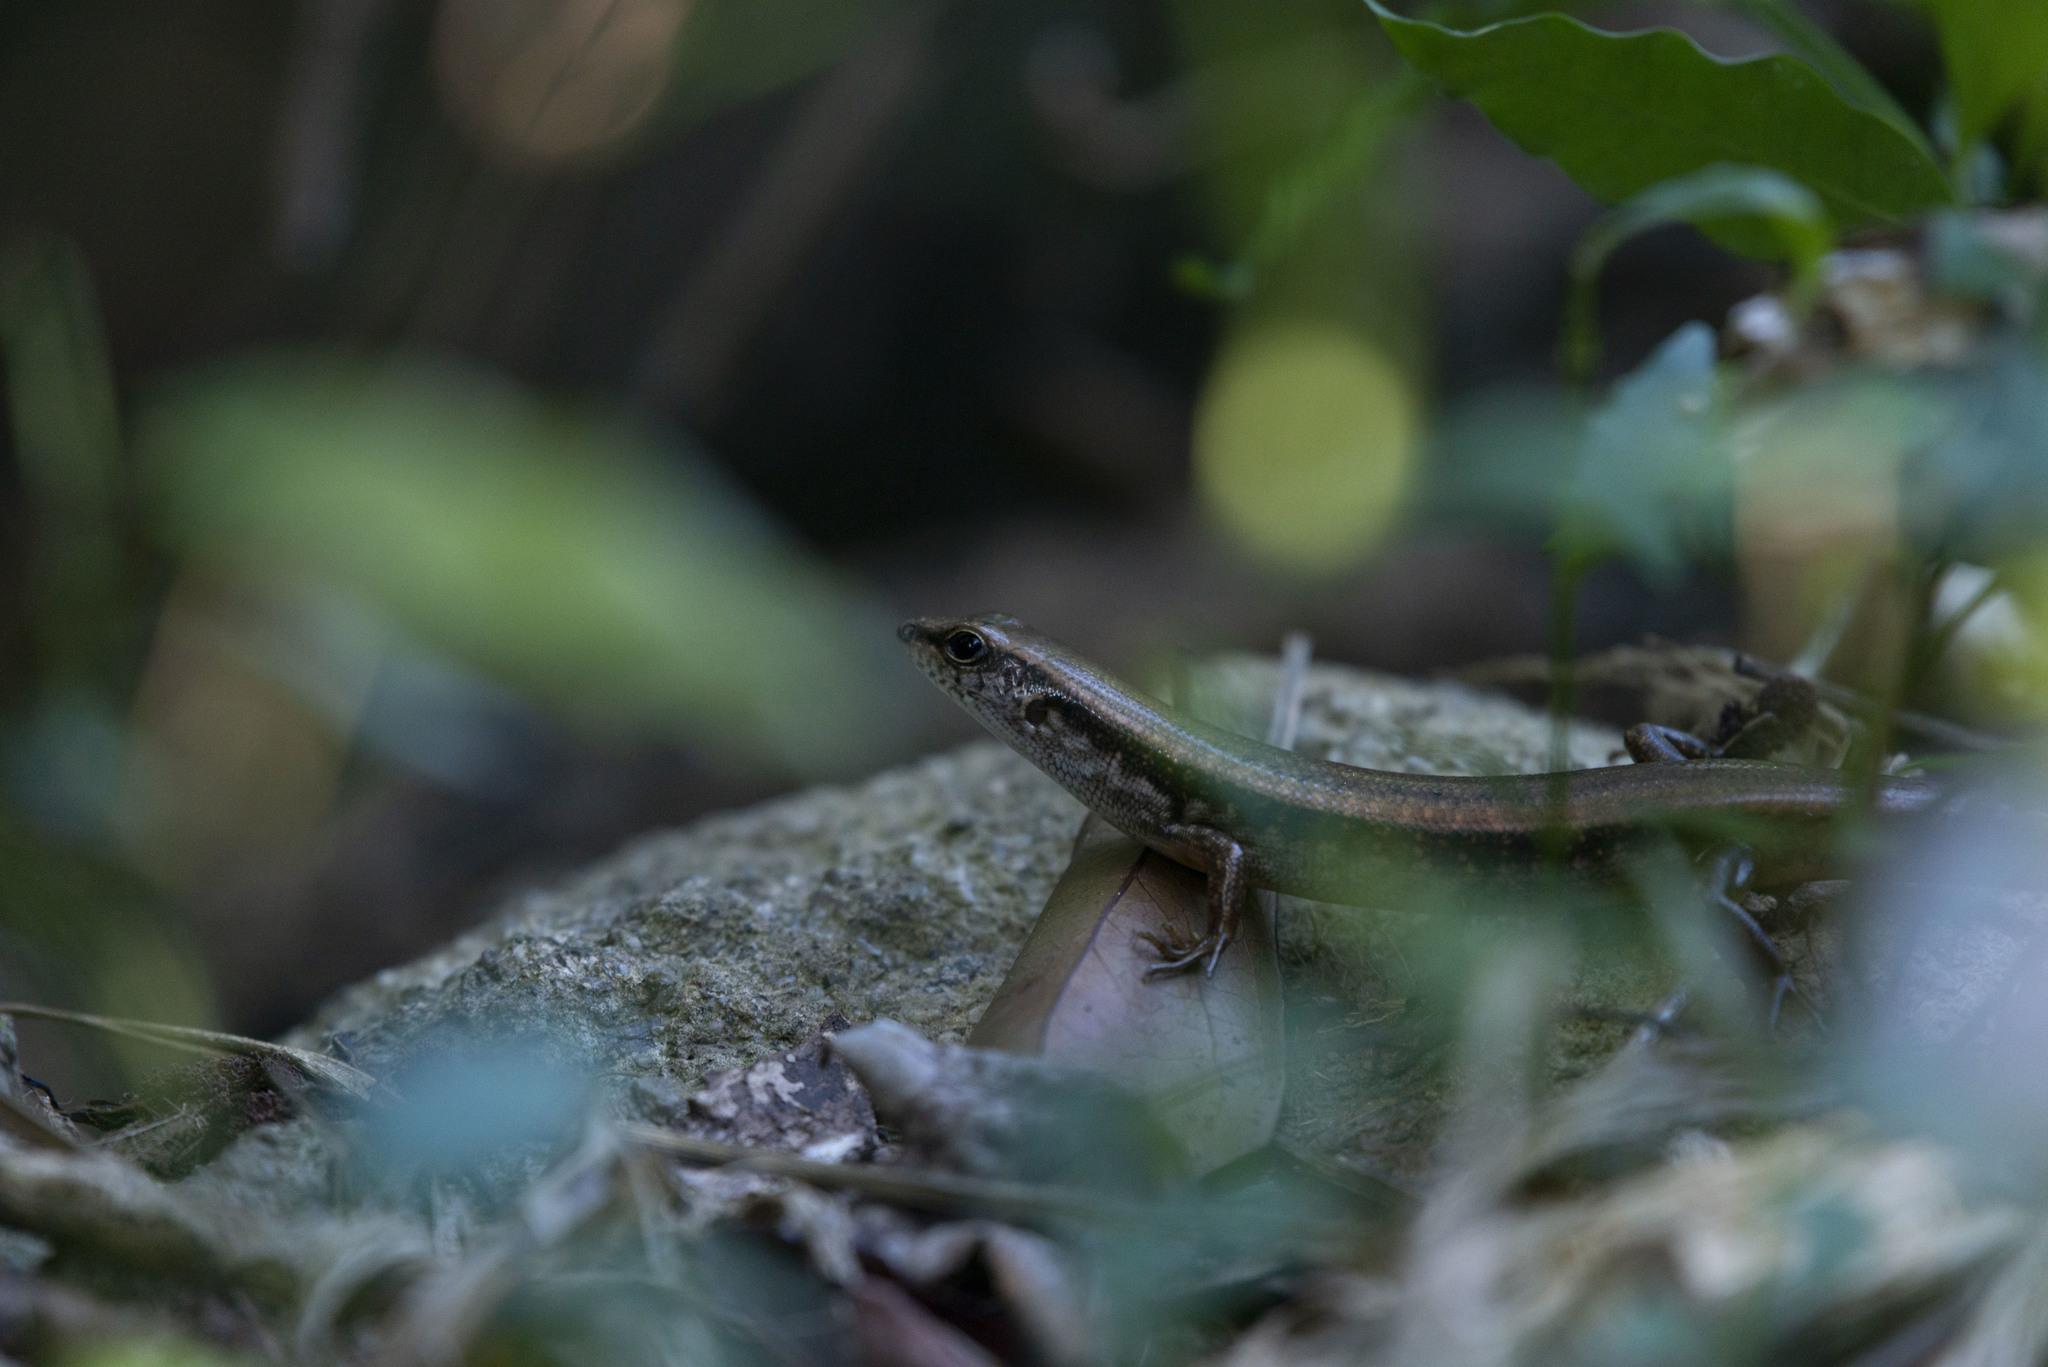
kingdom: Animalia
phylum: Chordata
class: Squamata
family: Scincidae
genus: Sphenomorphus
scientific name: Sphenomorphus indicus
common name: Himalayan forest skink
